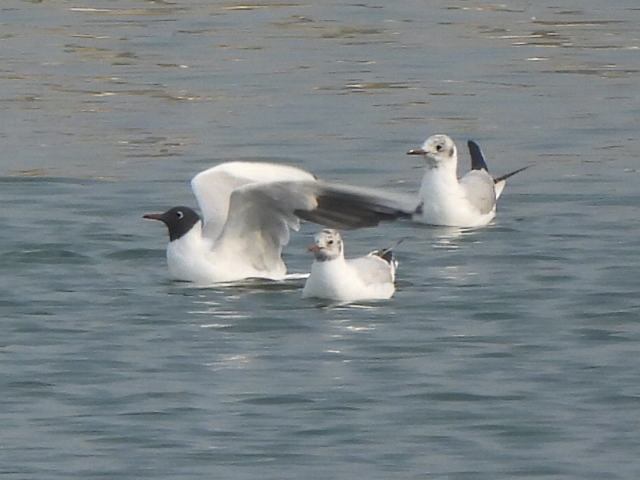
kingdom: Animalia
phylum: Chordata
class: Aves
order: Charadriiformes
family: Laridae
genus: Chroicocephalus
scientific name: Chroicocephalus ridibundus
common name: Black-headed gull
